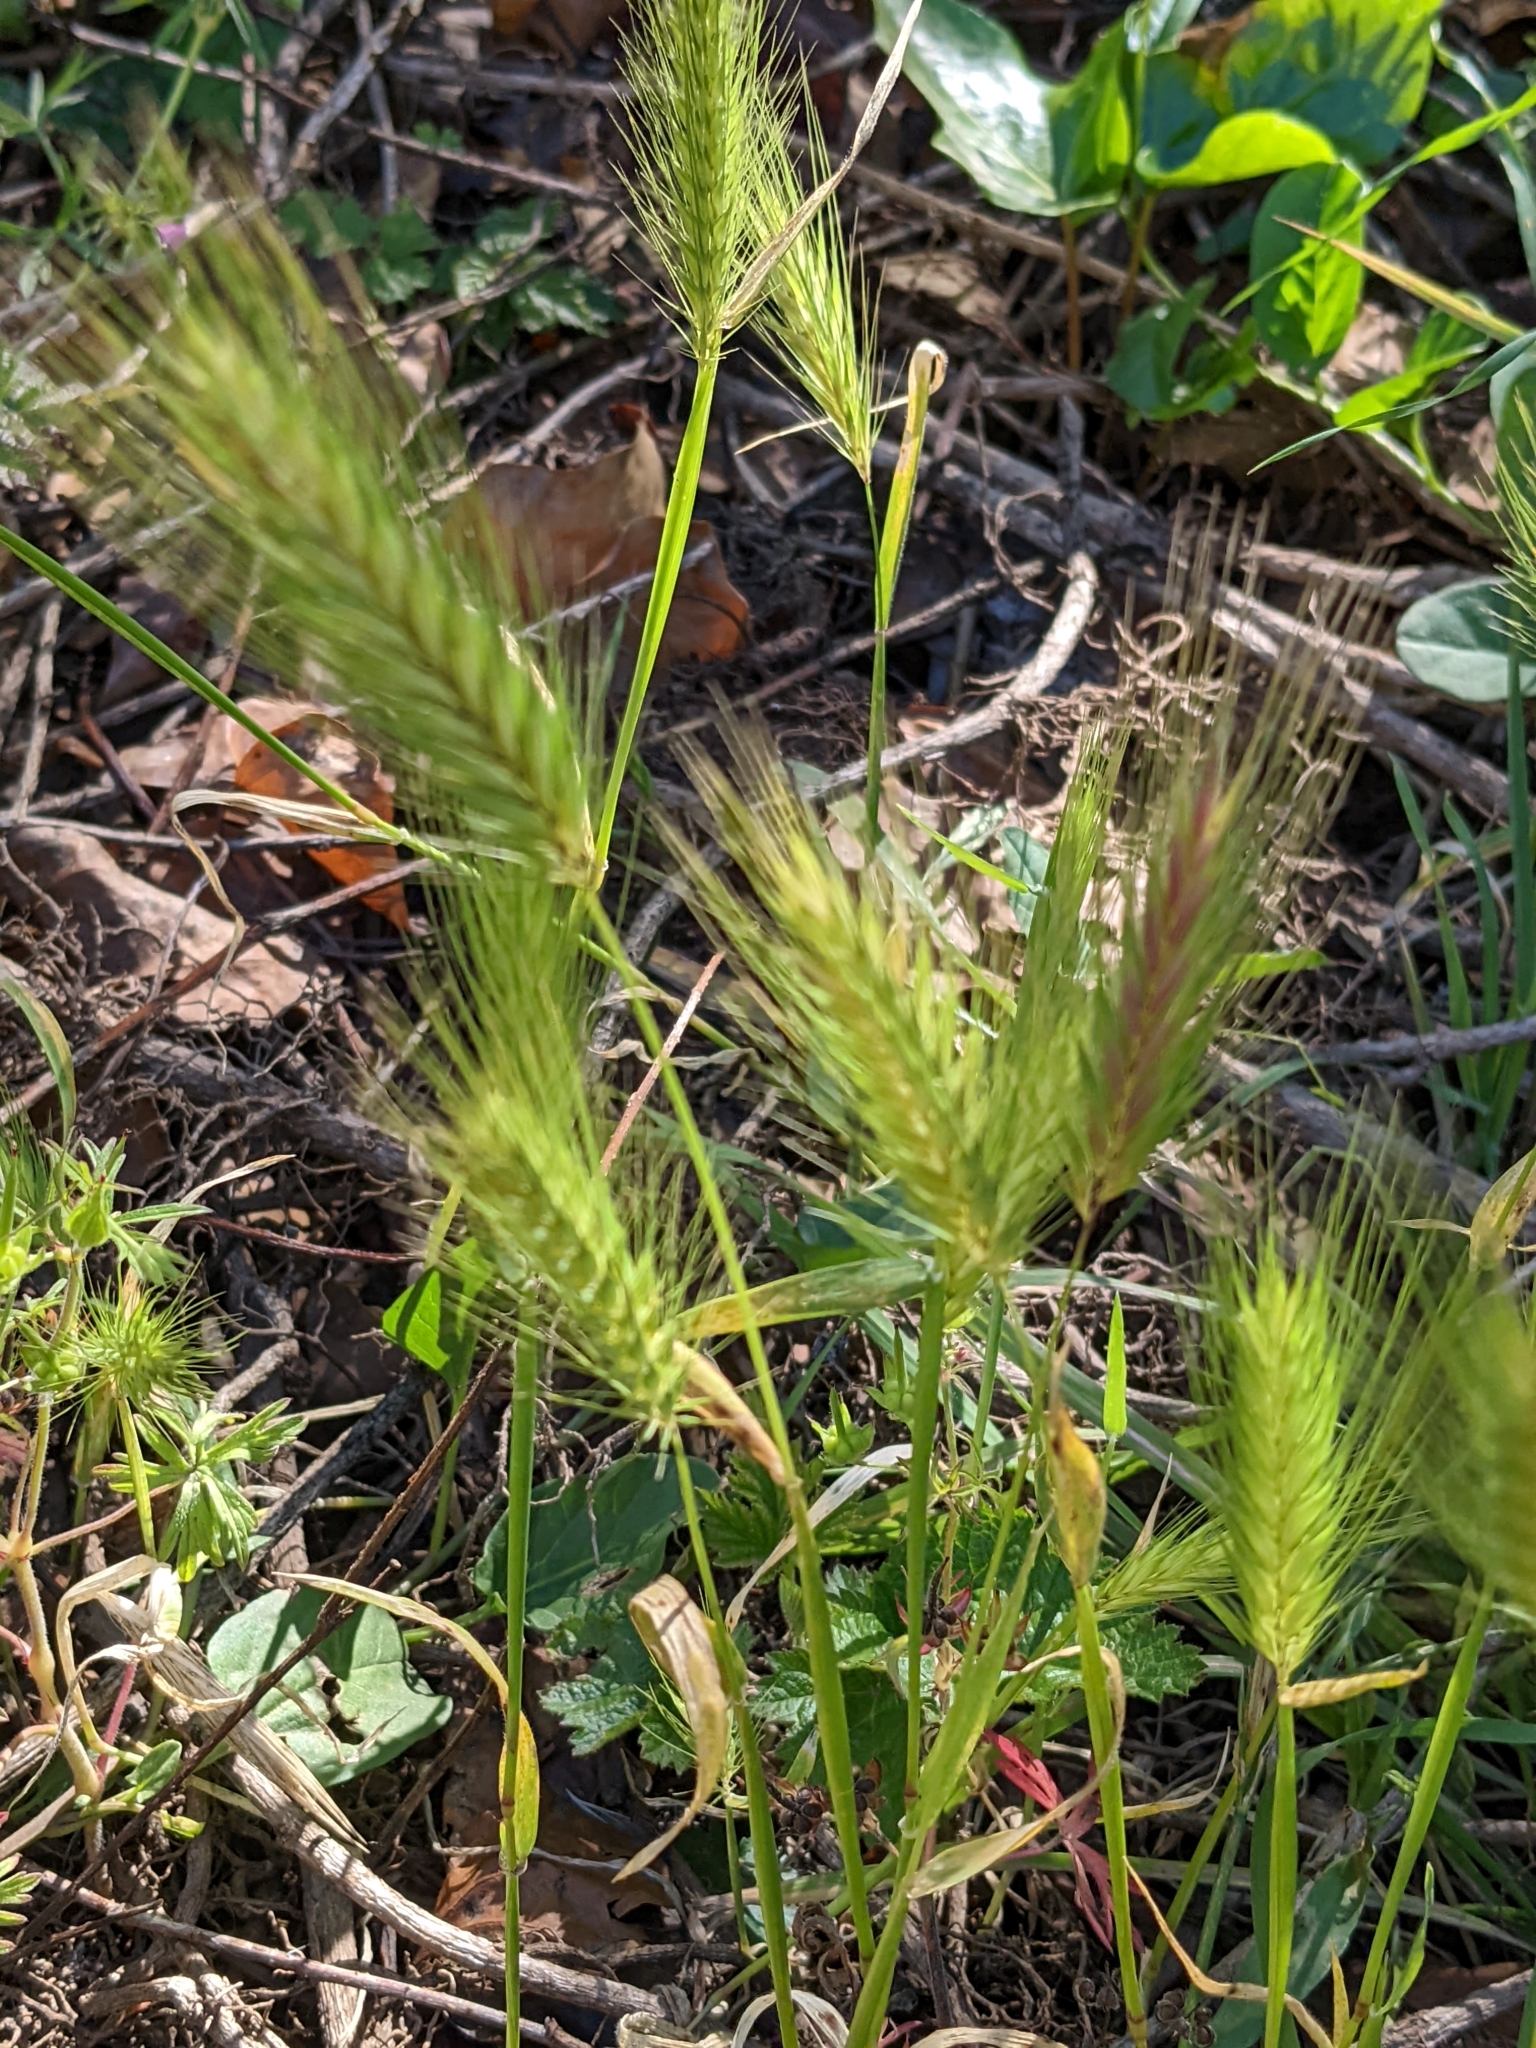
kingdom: Plantae
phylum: Tracheophyta
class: Liliopsida
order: Poales
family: Poaceae
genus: Hordeum
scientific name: Hordeum murinum
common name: Wall barley
